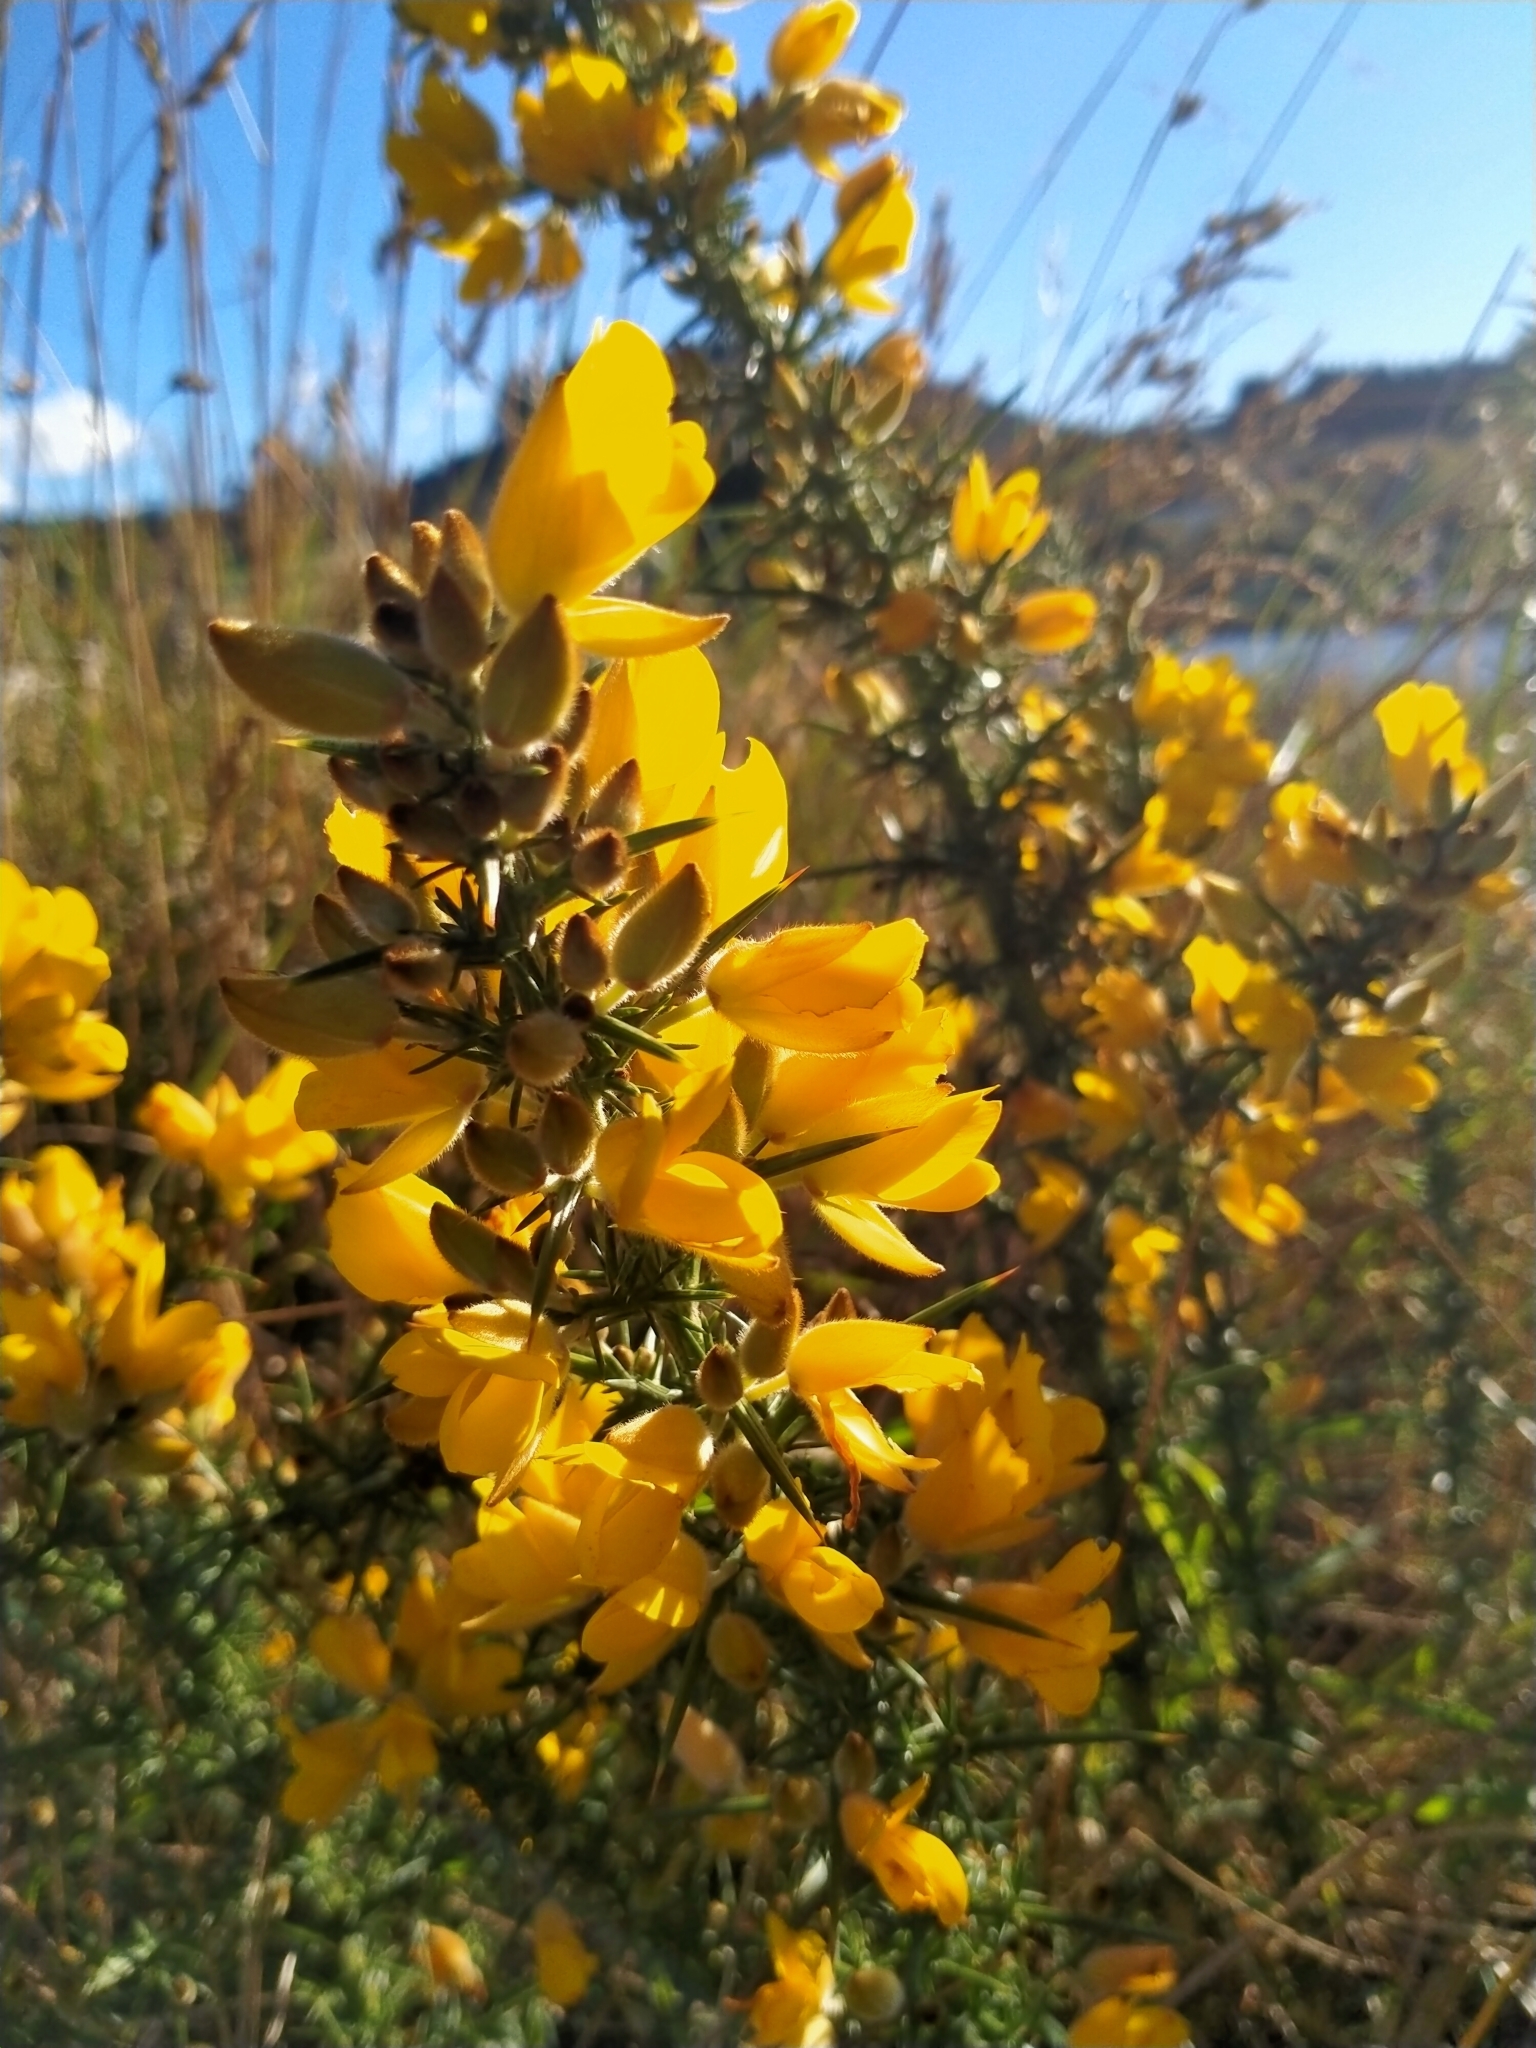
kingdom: Plantae
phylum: Tracheophyta
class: Magnoliopsida
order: Fabales
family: Fabaceae
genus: Ulex
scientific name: Ulex europaeus
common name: Common gorse
